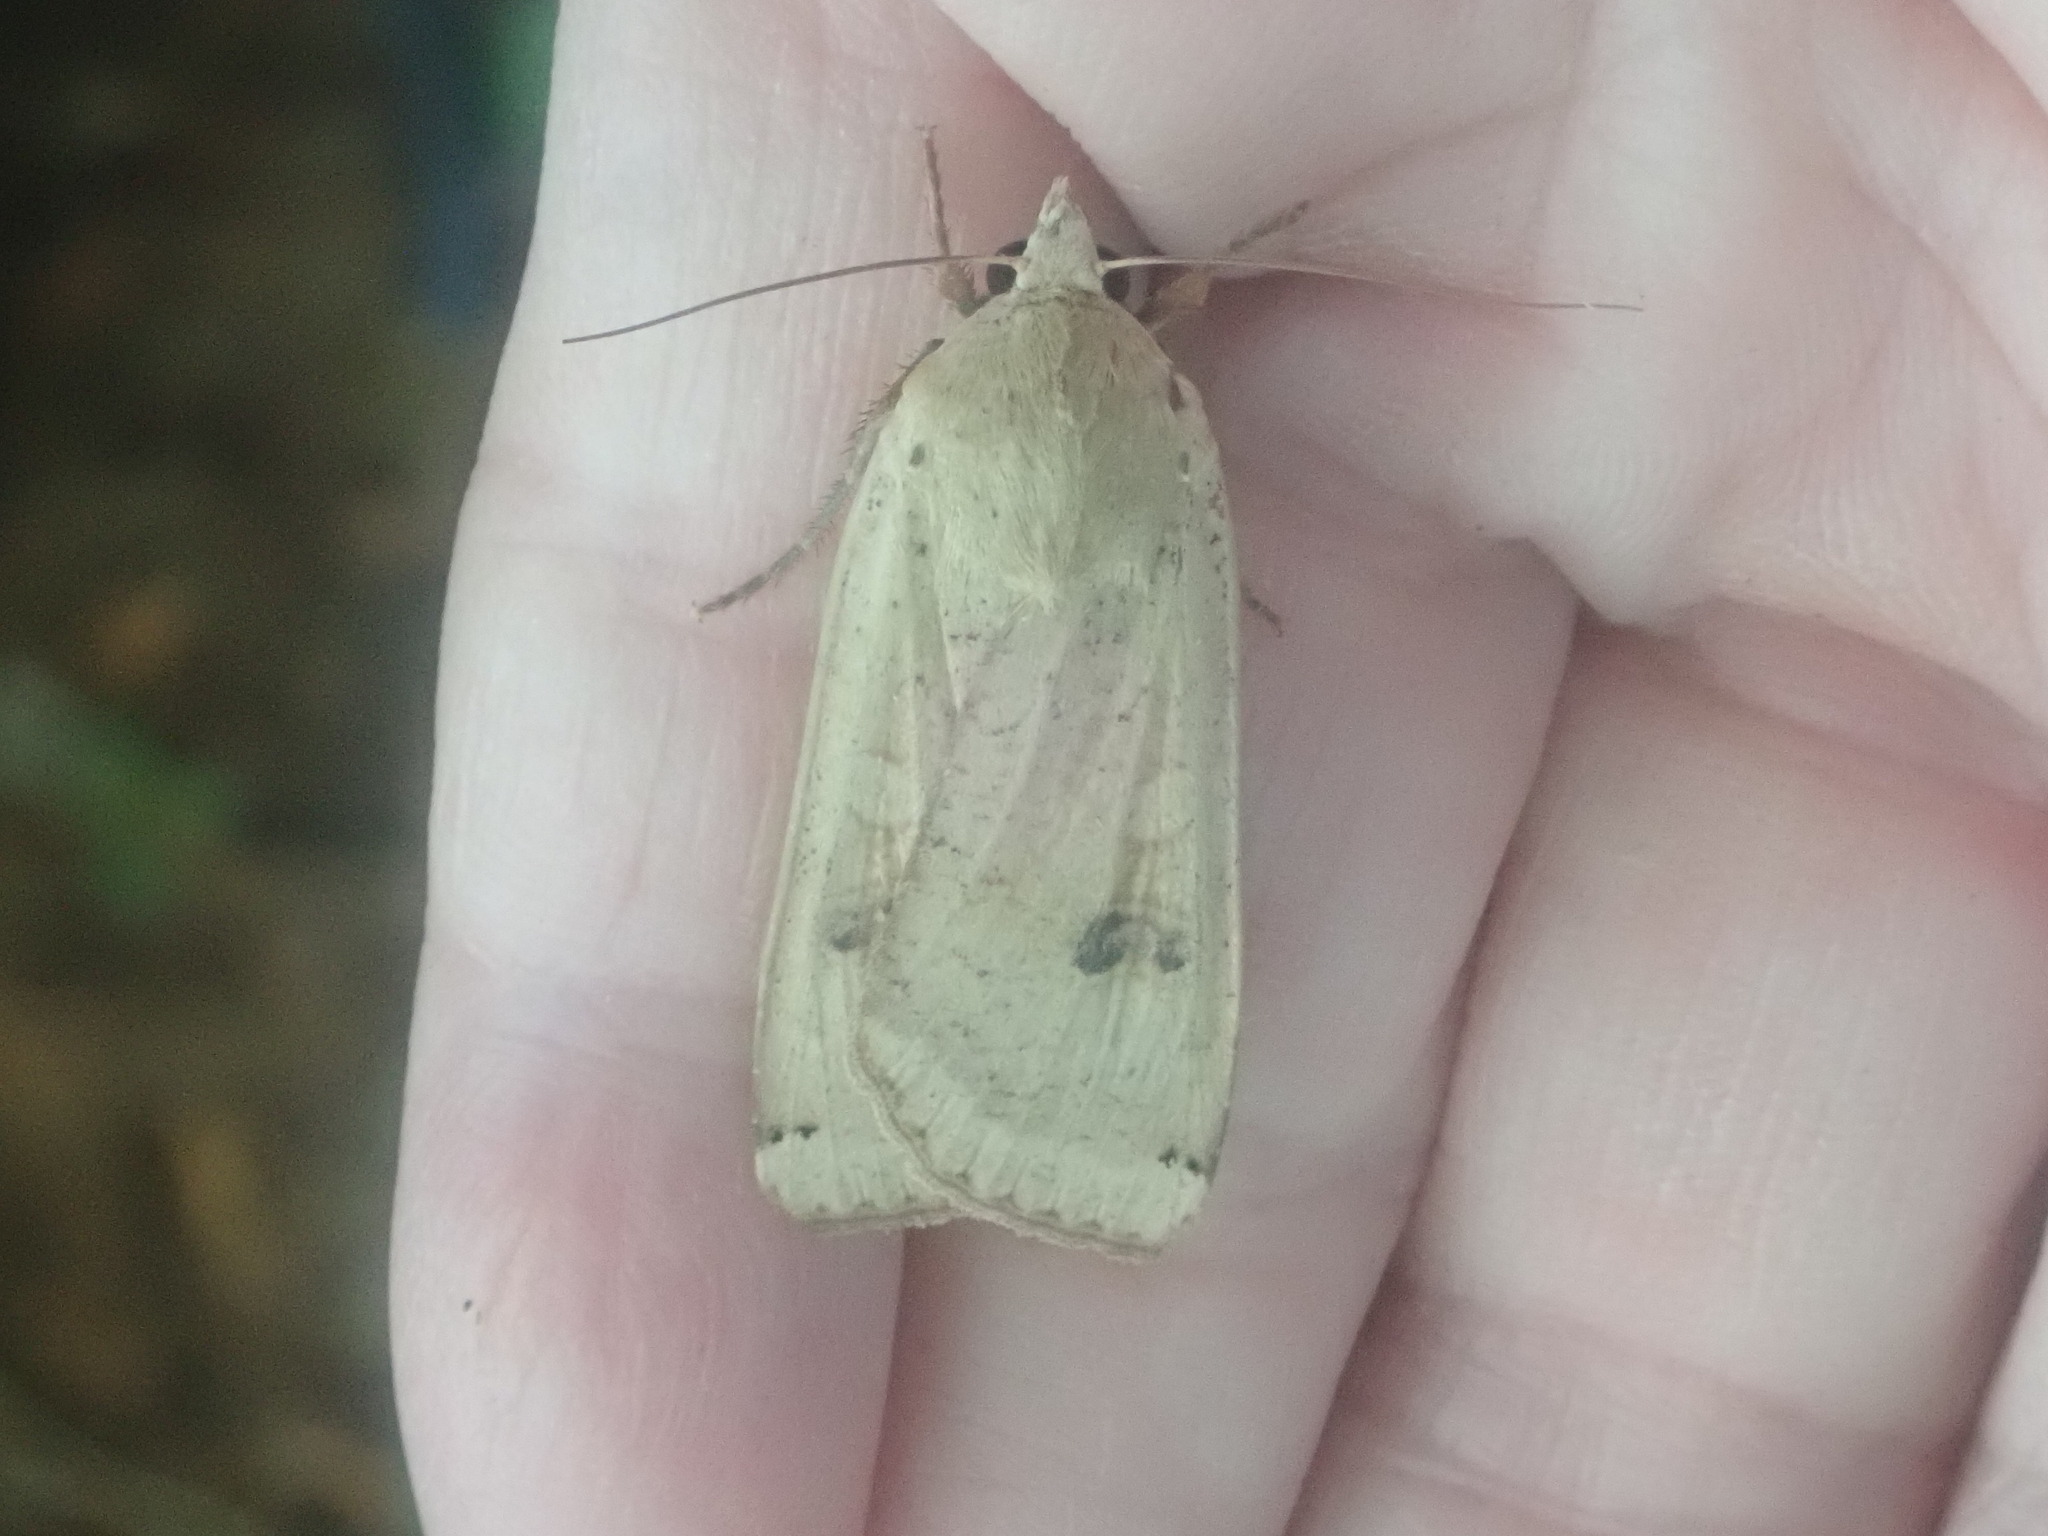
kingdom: Animalia
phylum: Arthropoda
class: Insecta
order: Lepidoptera
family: Noctuidae
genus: Noctua
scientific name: Noctua pronuba
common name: Large yellow underwing
